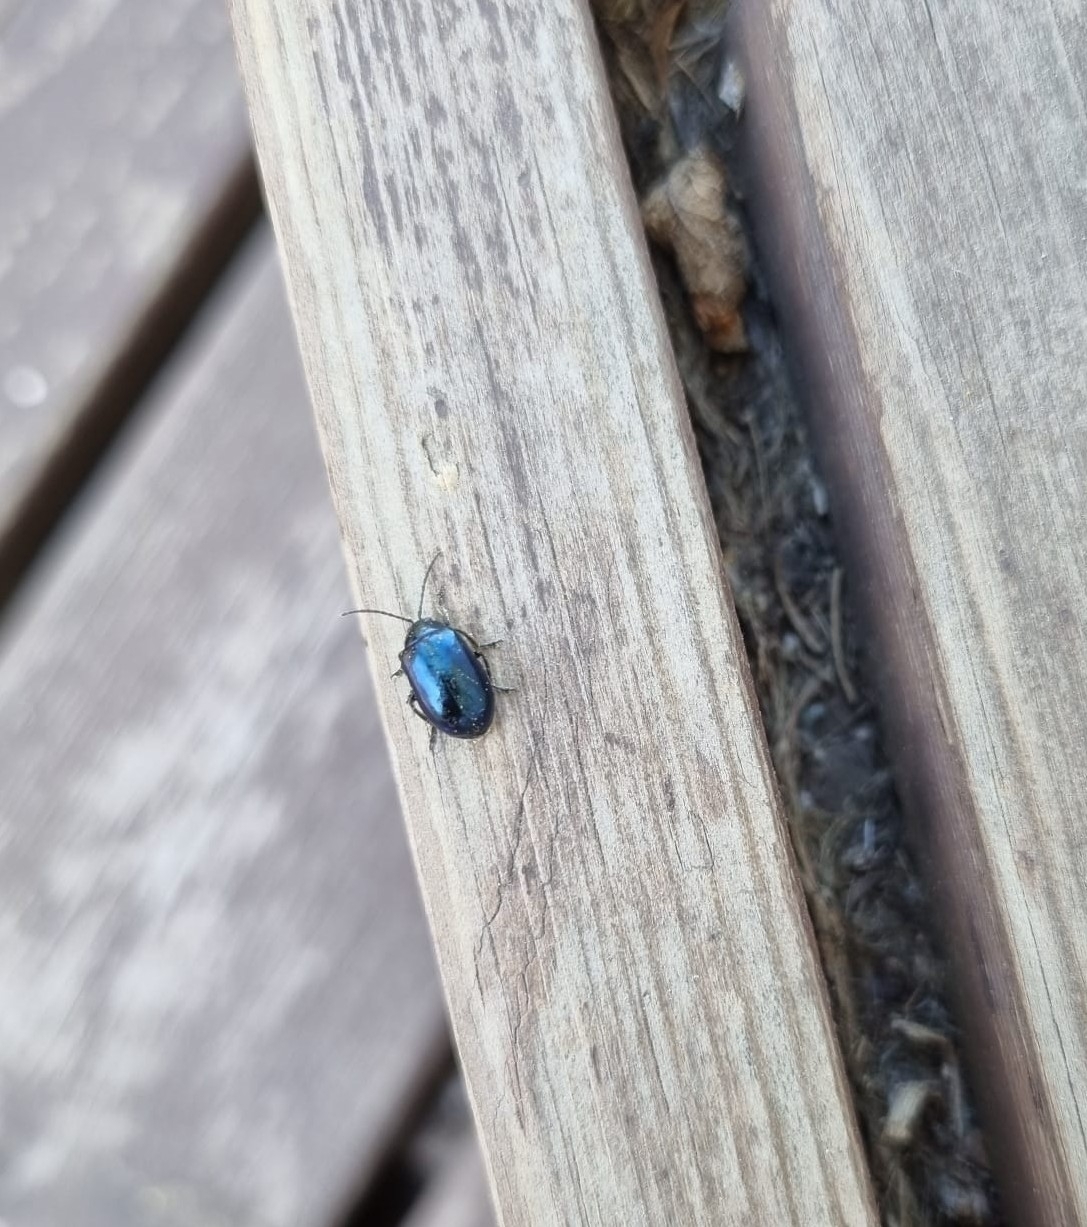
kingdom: Animalia
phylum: Arthropoda
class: Insecta
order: Coleoptera
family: Chrysomelidae
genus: Agelastica
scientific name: Agelastica alni
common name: Alder leaf beetle
